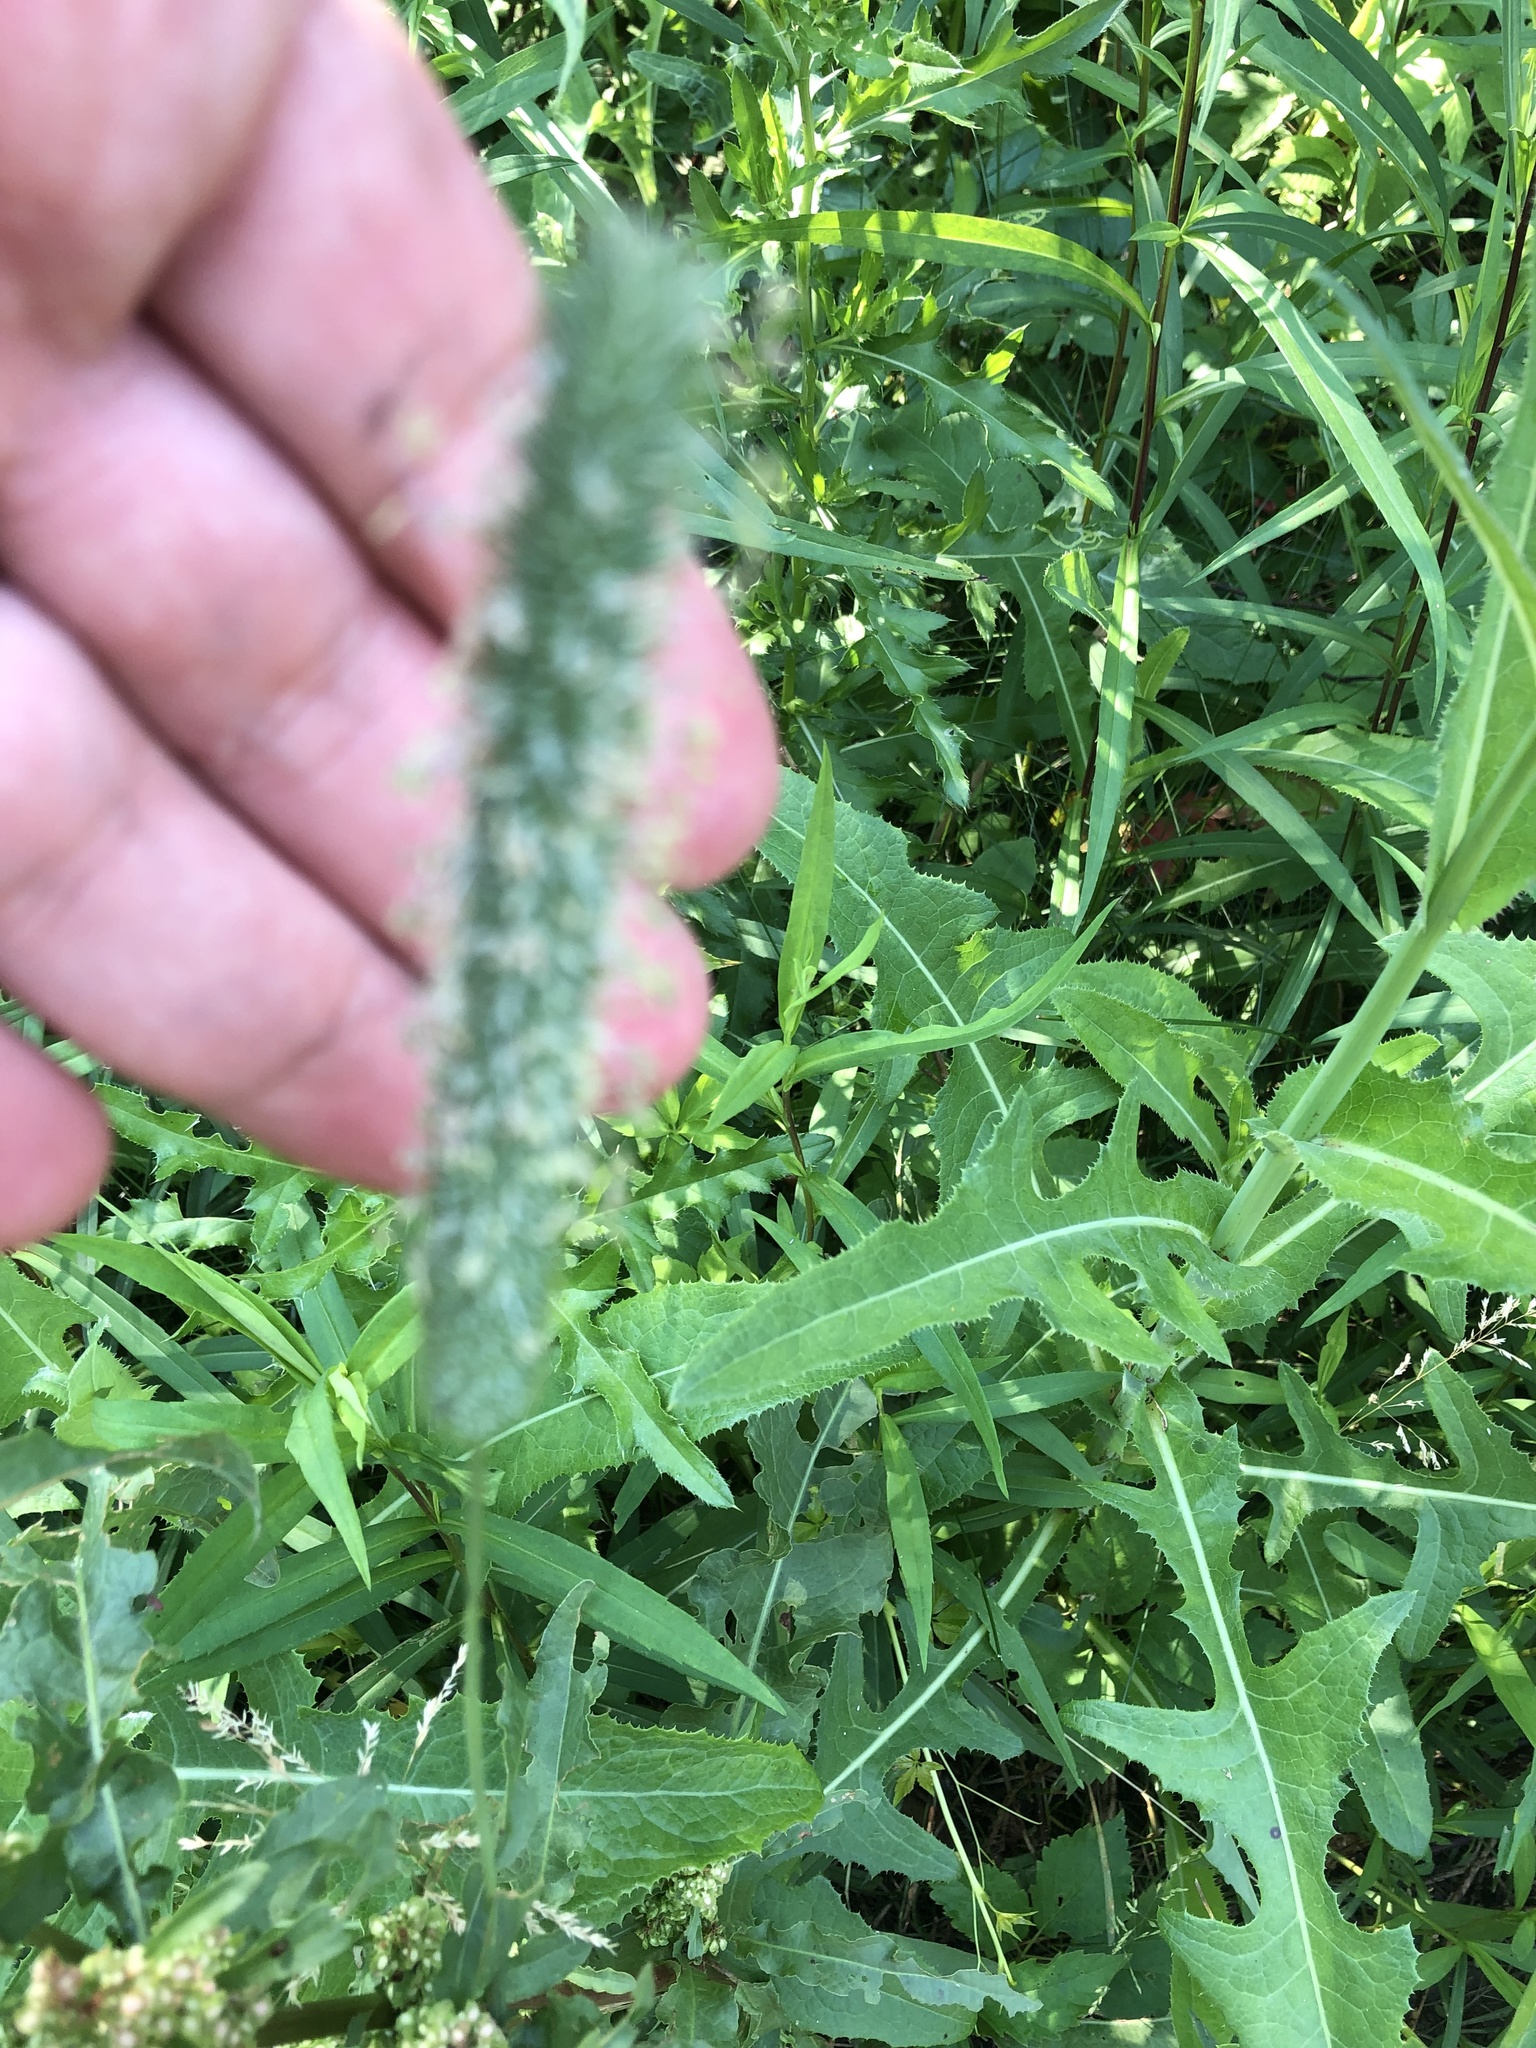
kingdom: Plantae
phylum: Tracheophyta
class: Liliopsida
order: Poales
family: Poaceae
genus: Phleum
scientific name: Phleum pratense
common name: Timothy grass
